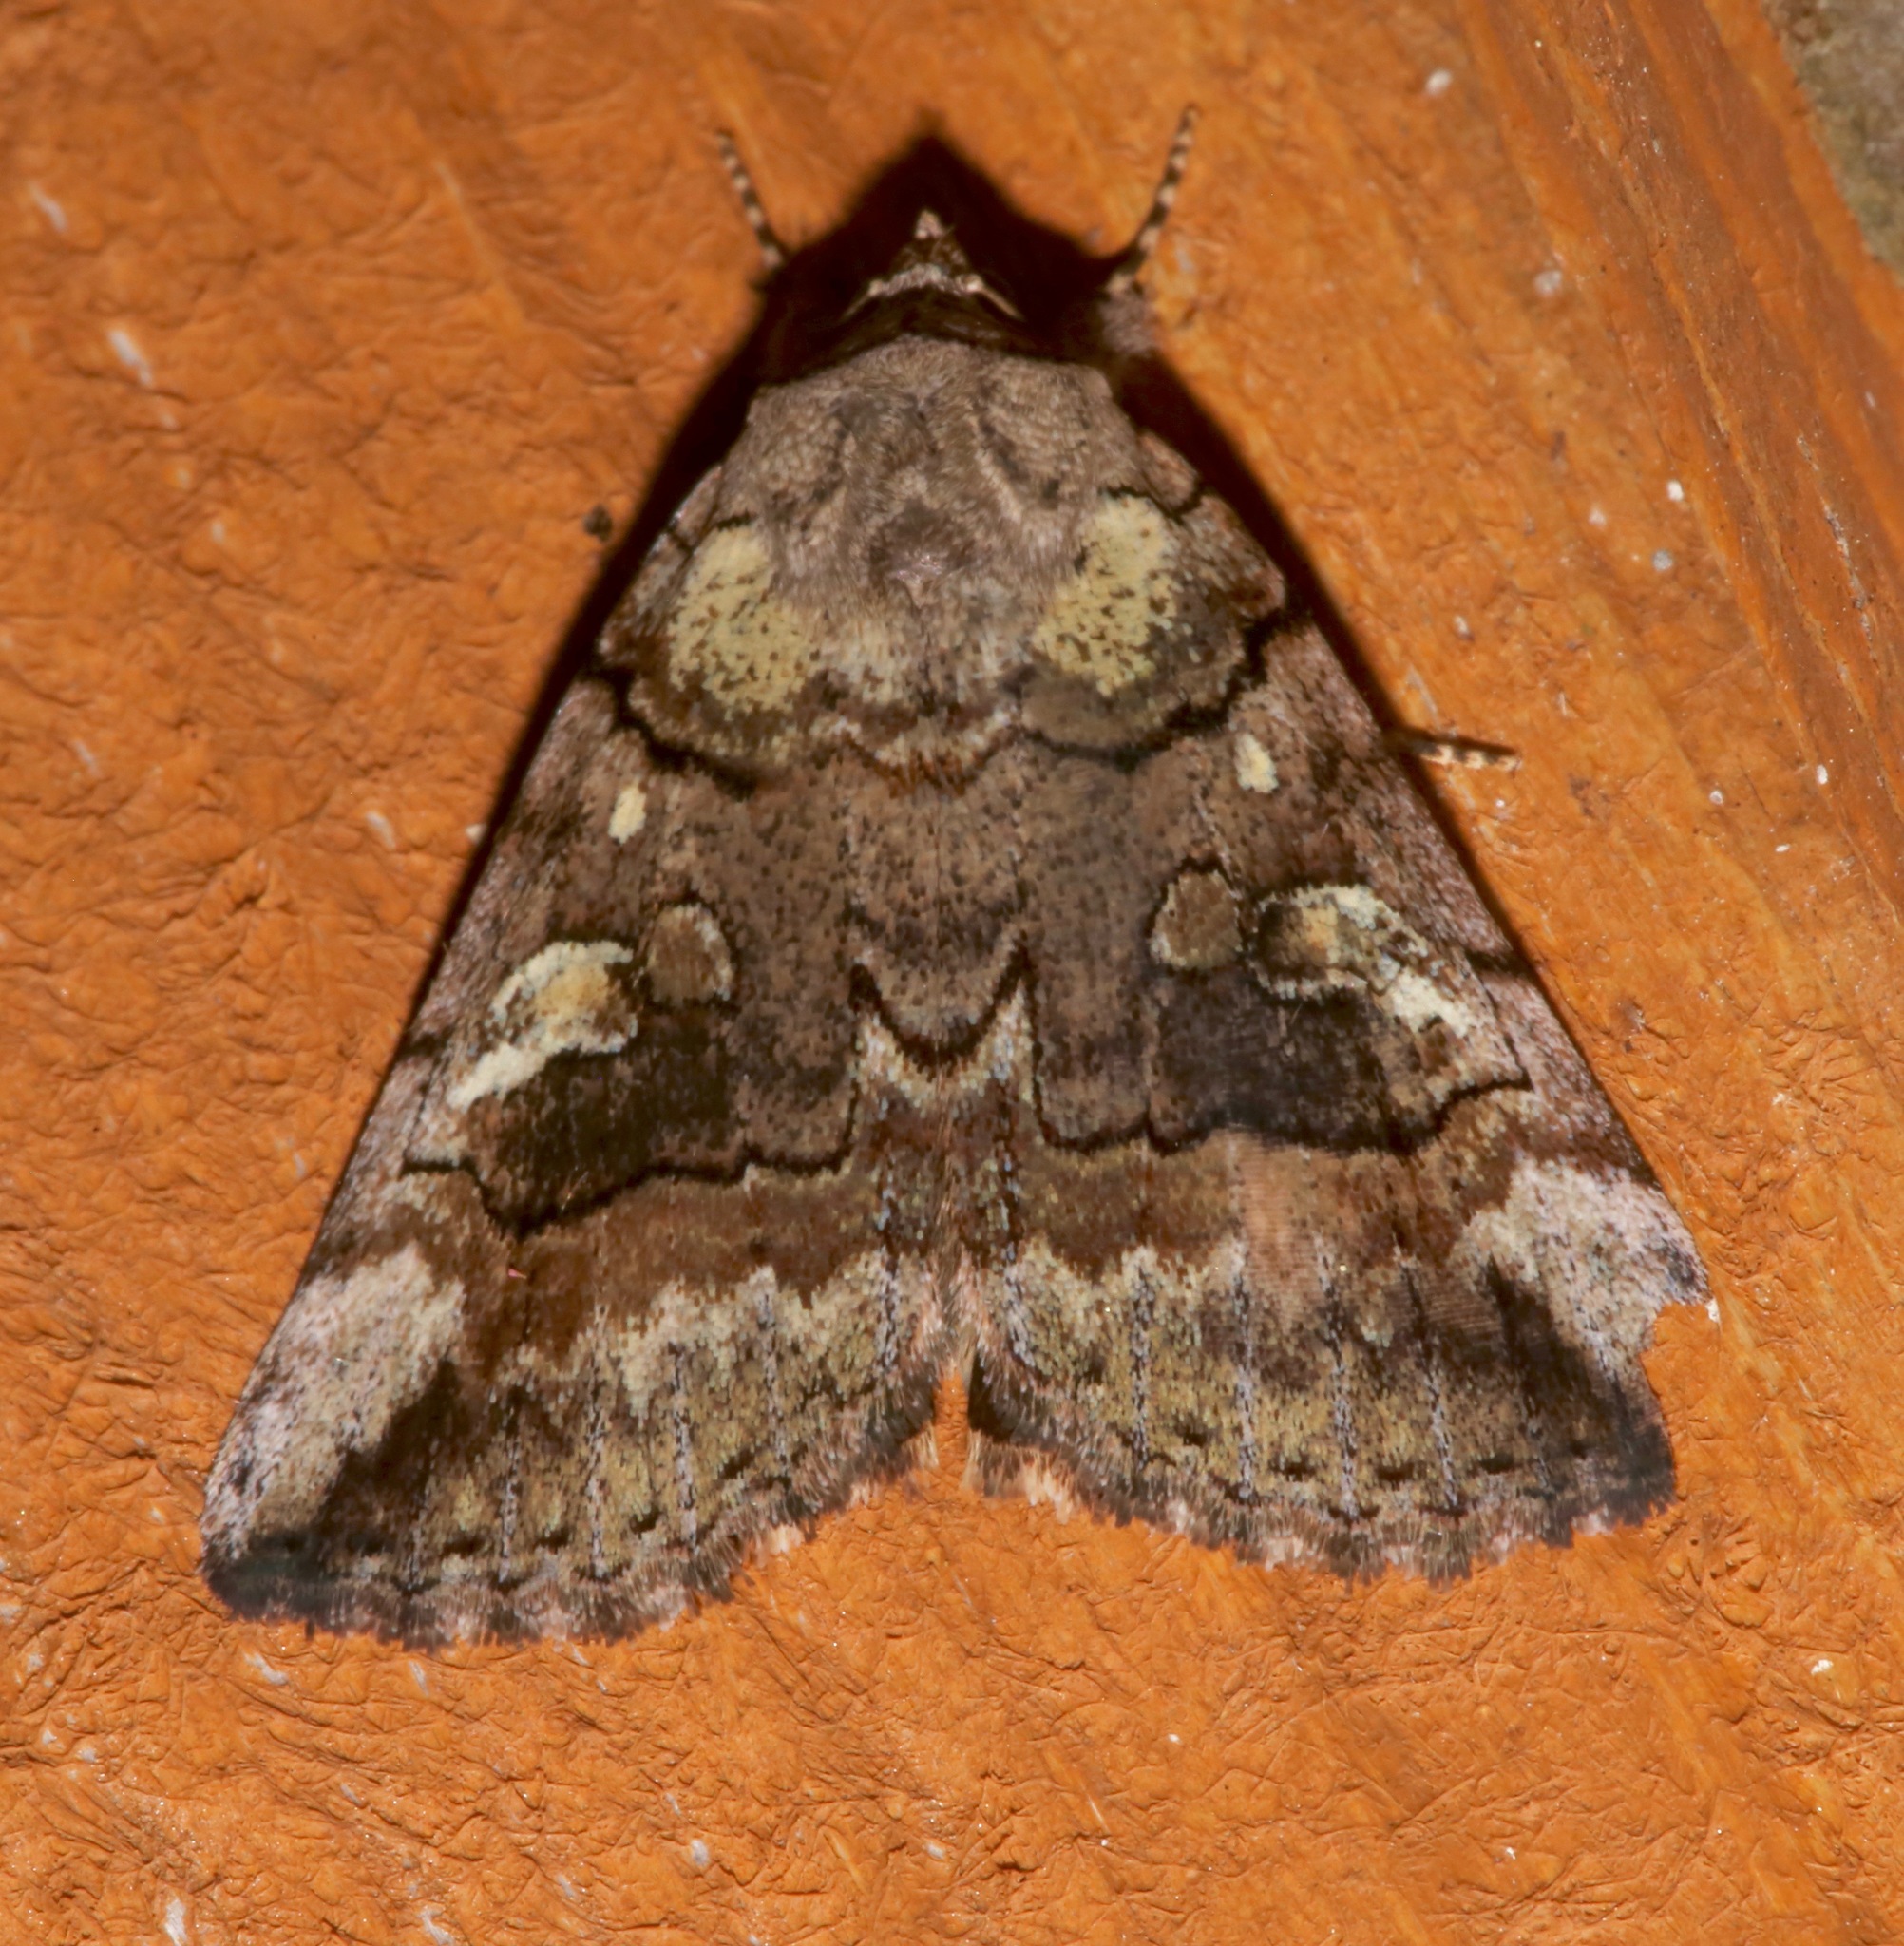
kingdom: Animalia
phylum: Arthropoda
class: Insecta
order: Lepidoptera
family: Erebidae
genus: Catocala
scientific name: Catocala similis
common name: Similar underwing
